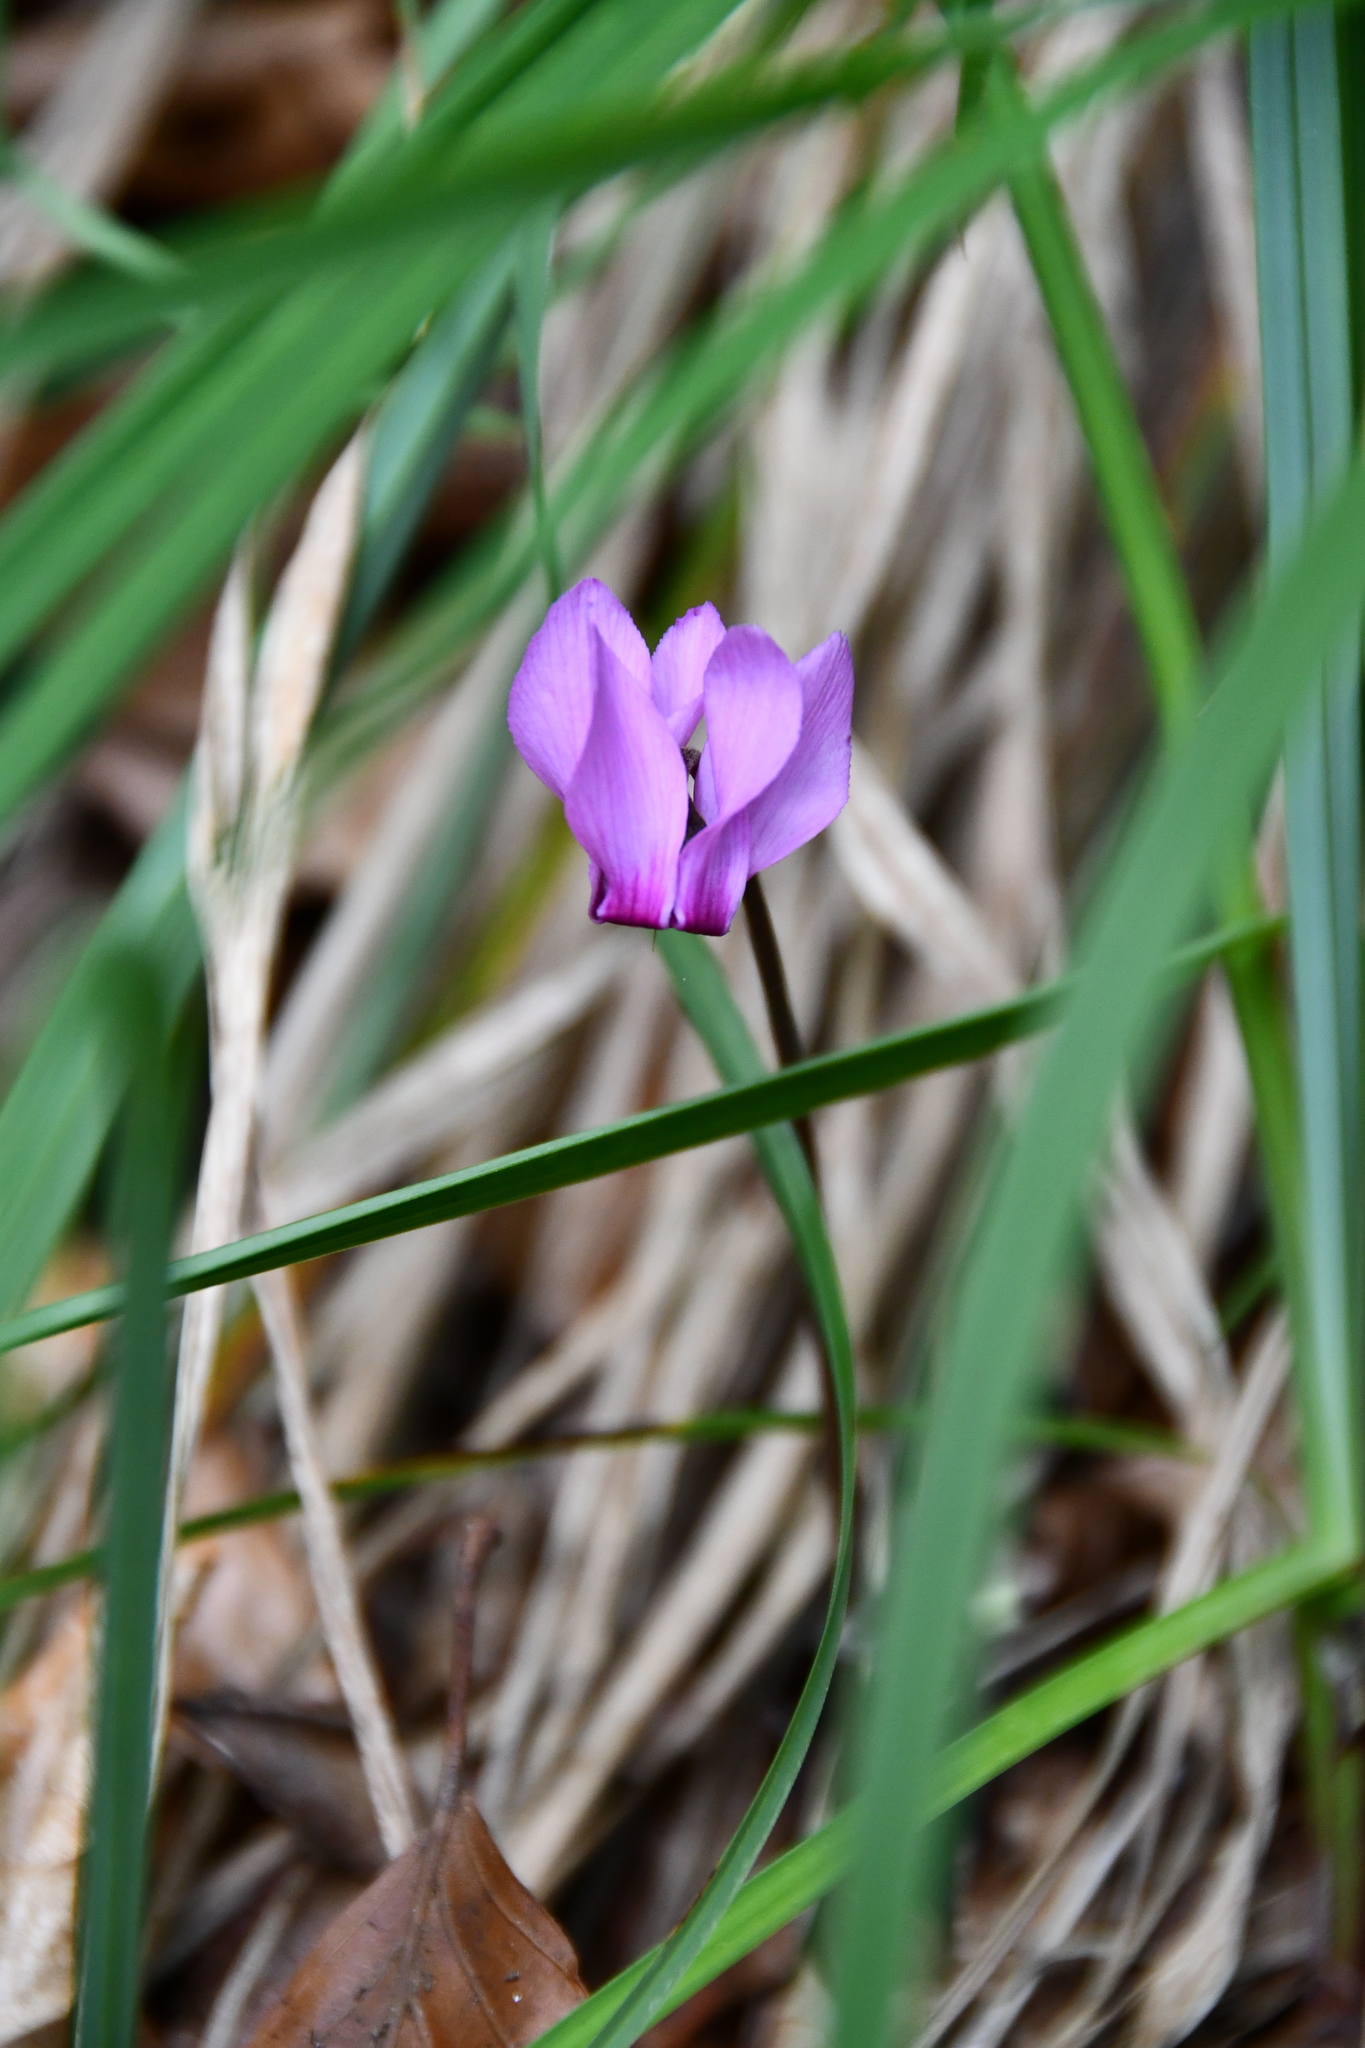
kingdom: Plantae
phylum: Tracheophyta
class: Magnoliopsida
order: Ericales
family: Primulaceae
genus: Cyclamen
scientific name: Cyclamen purpurascens
